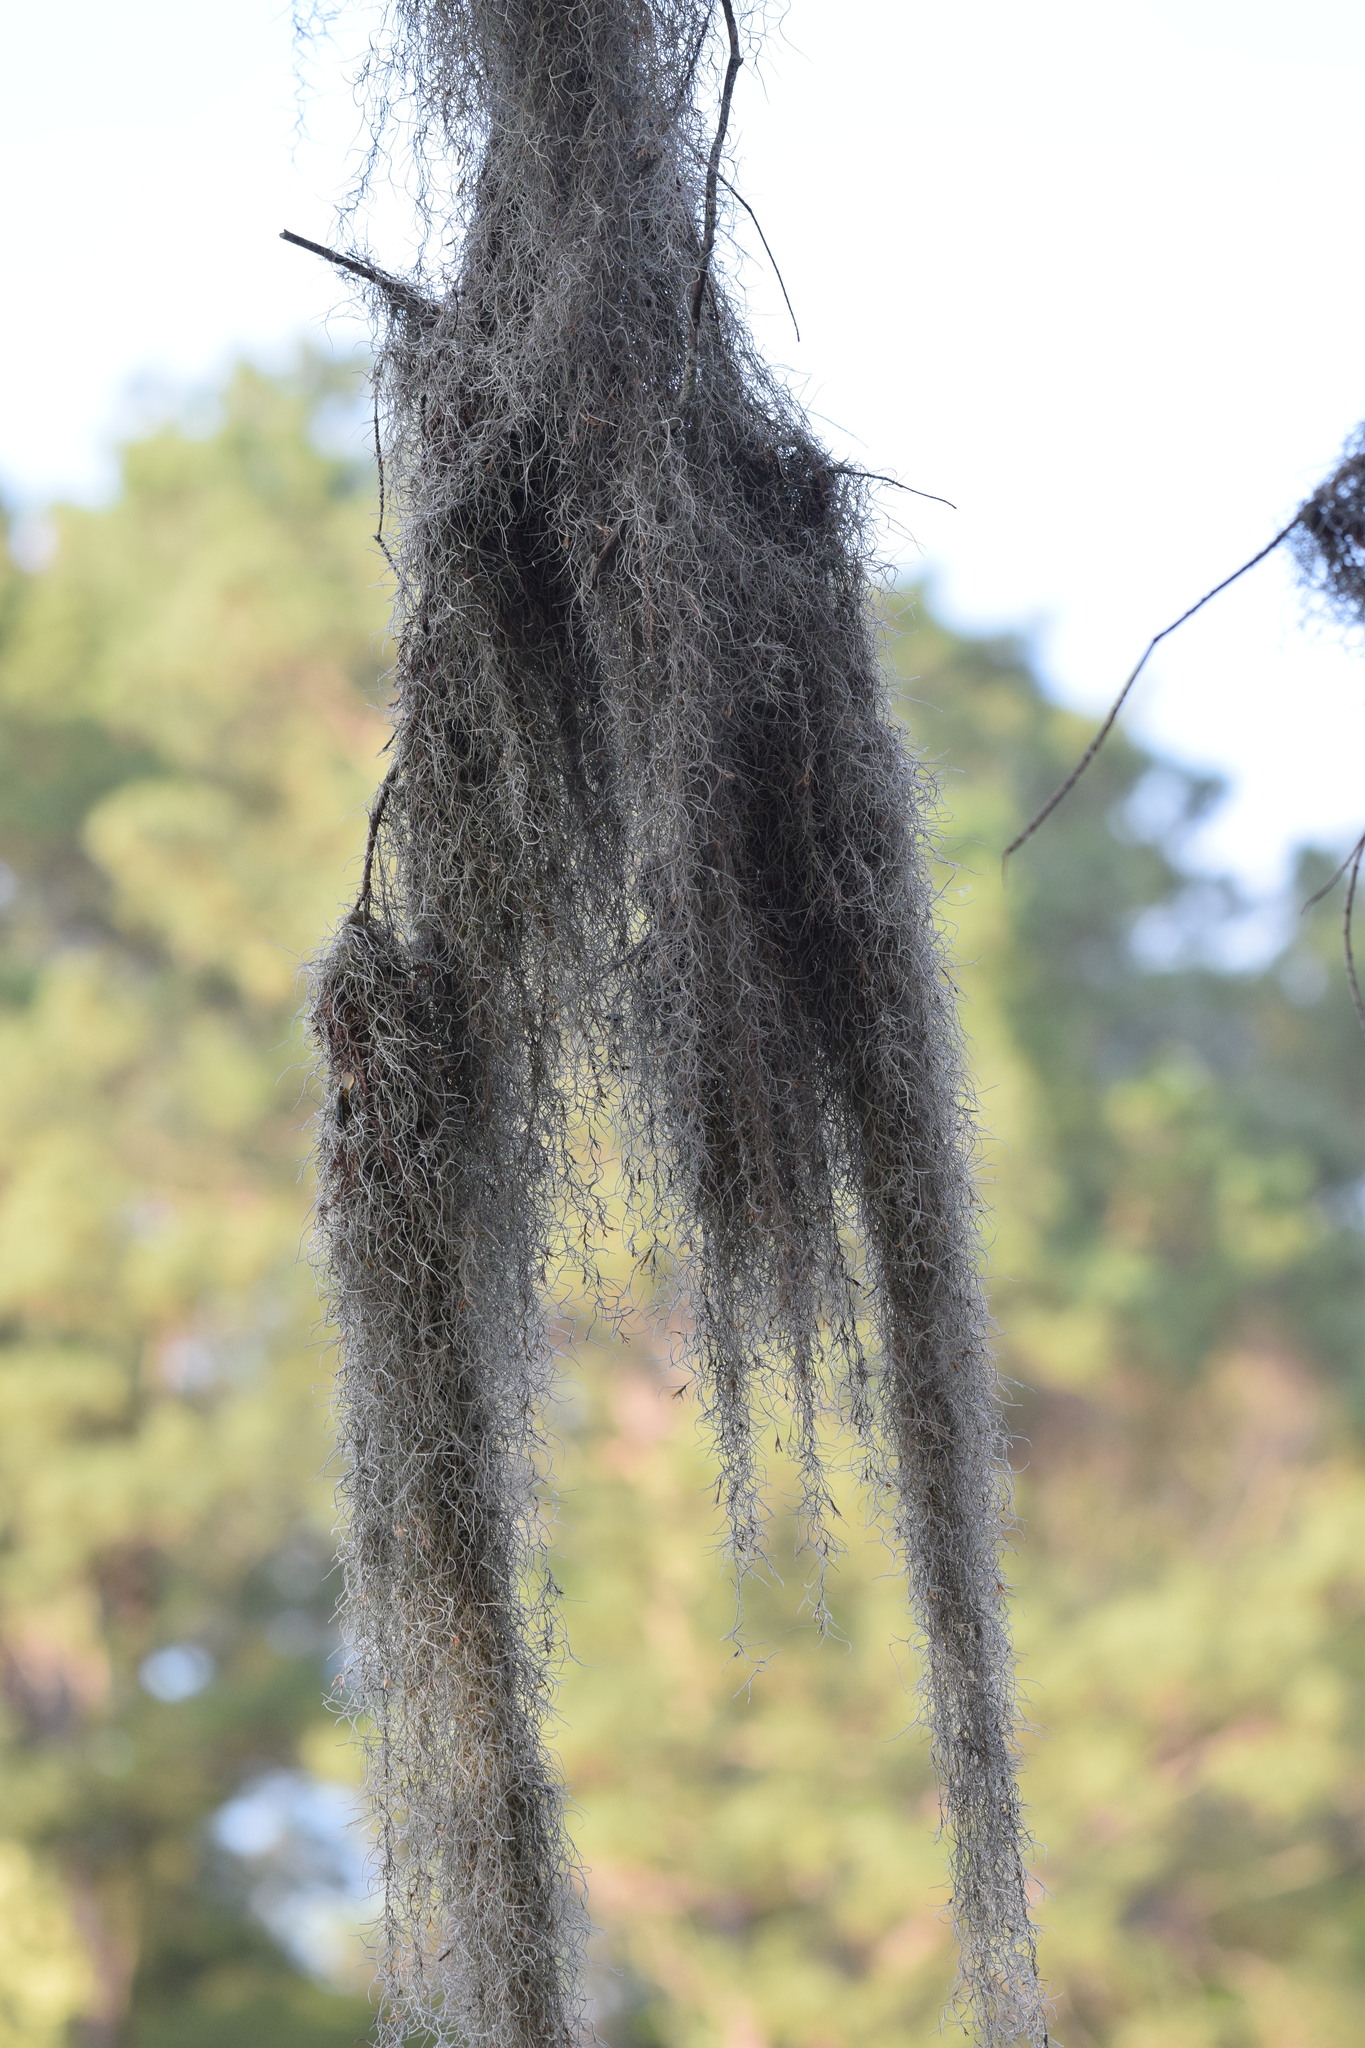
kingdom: Plantae
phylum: Tracheophyta
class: Liliopsida
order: Poales
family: Bromeliaceae
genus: Tillandsia
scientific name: Tillandsia usneoides
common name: Spanish moss
